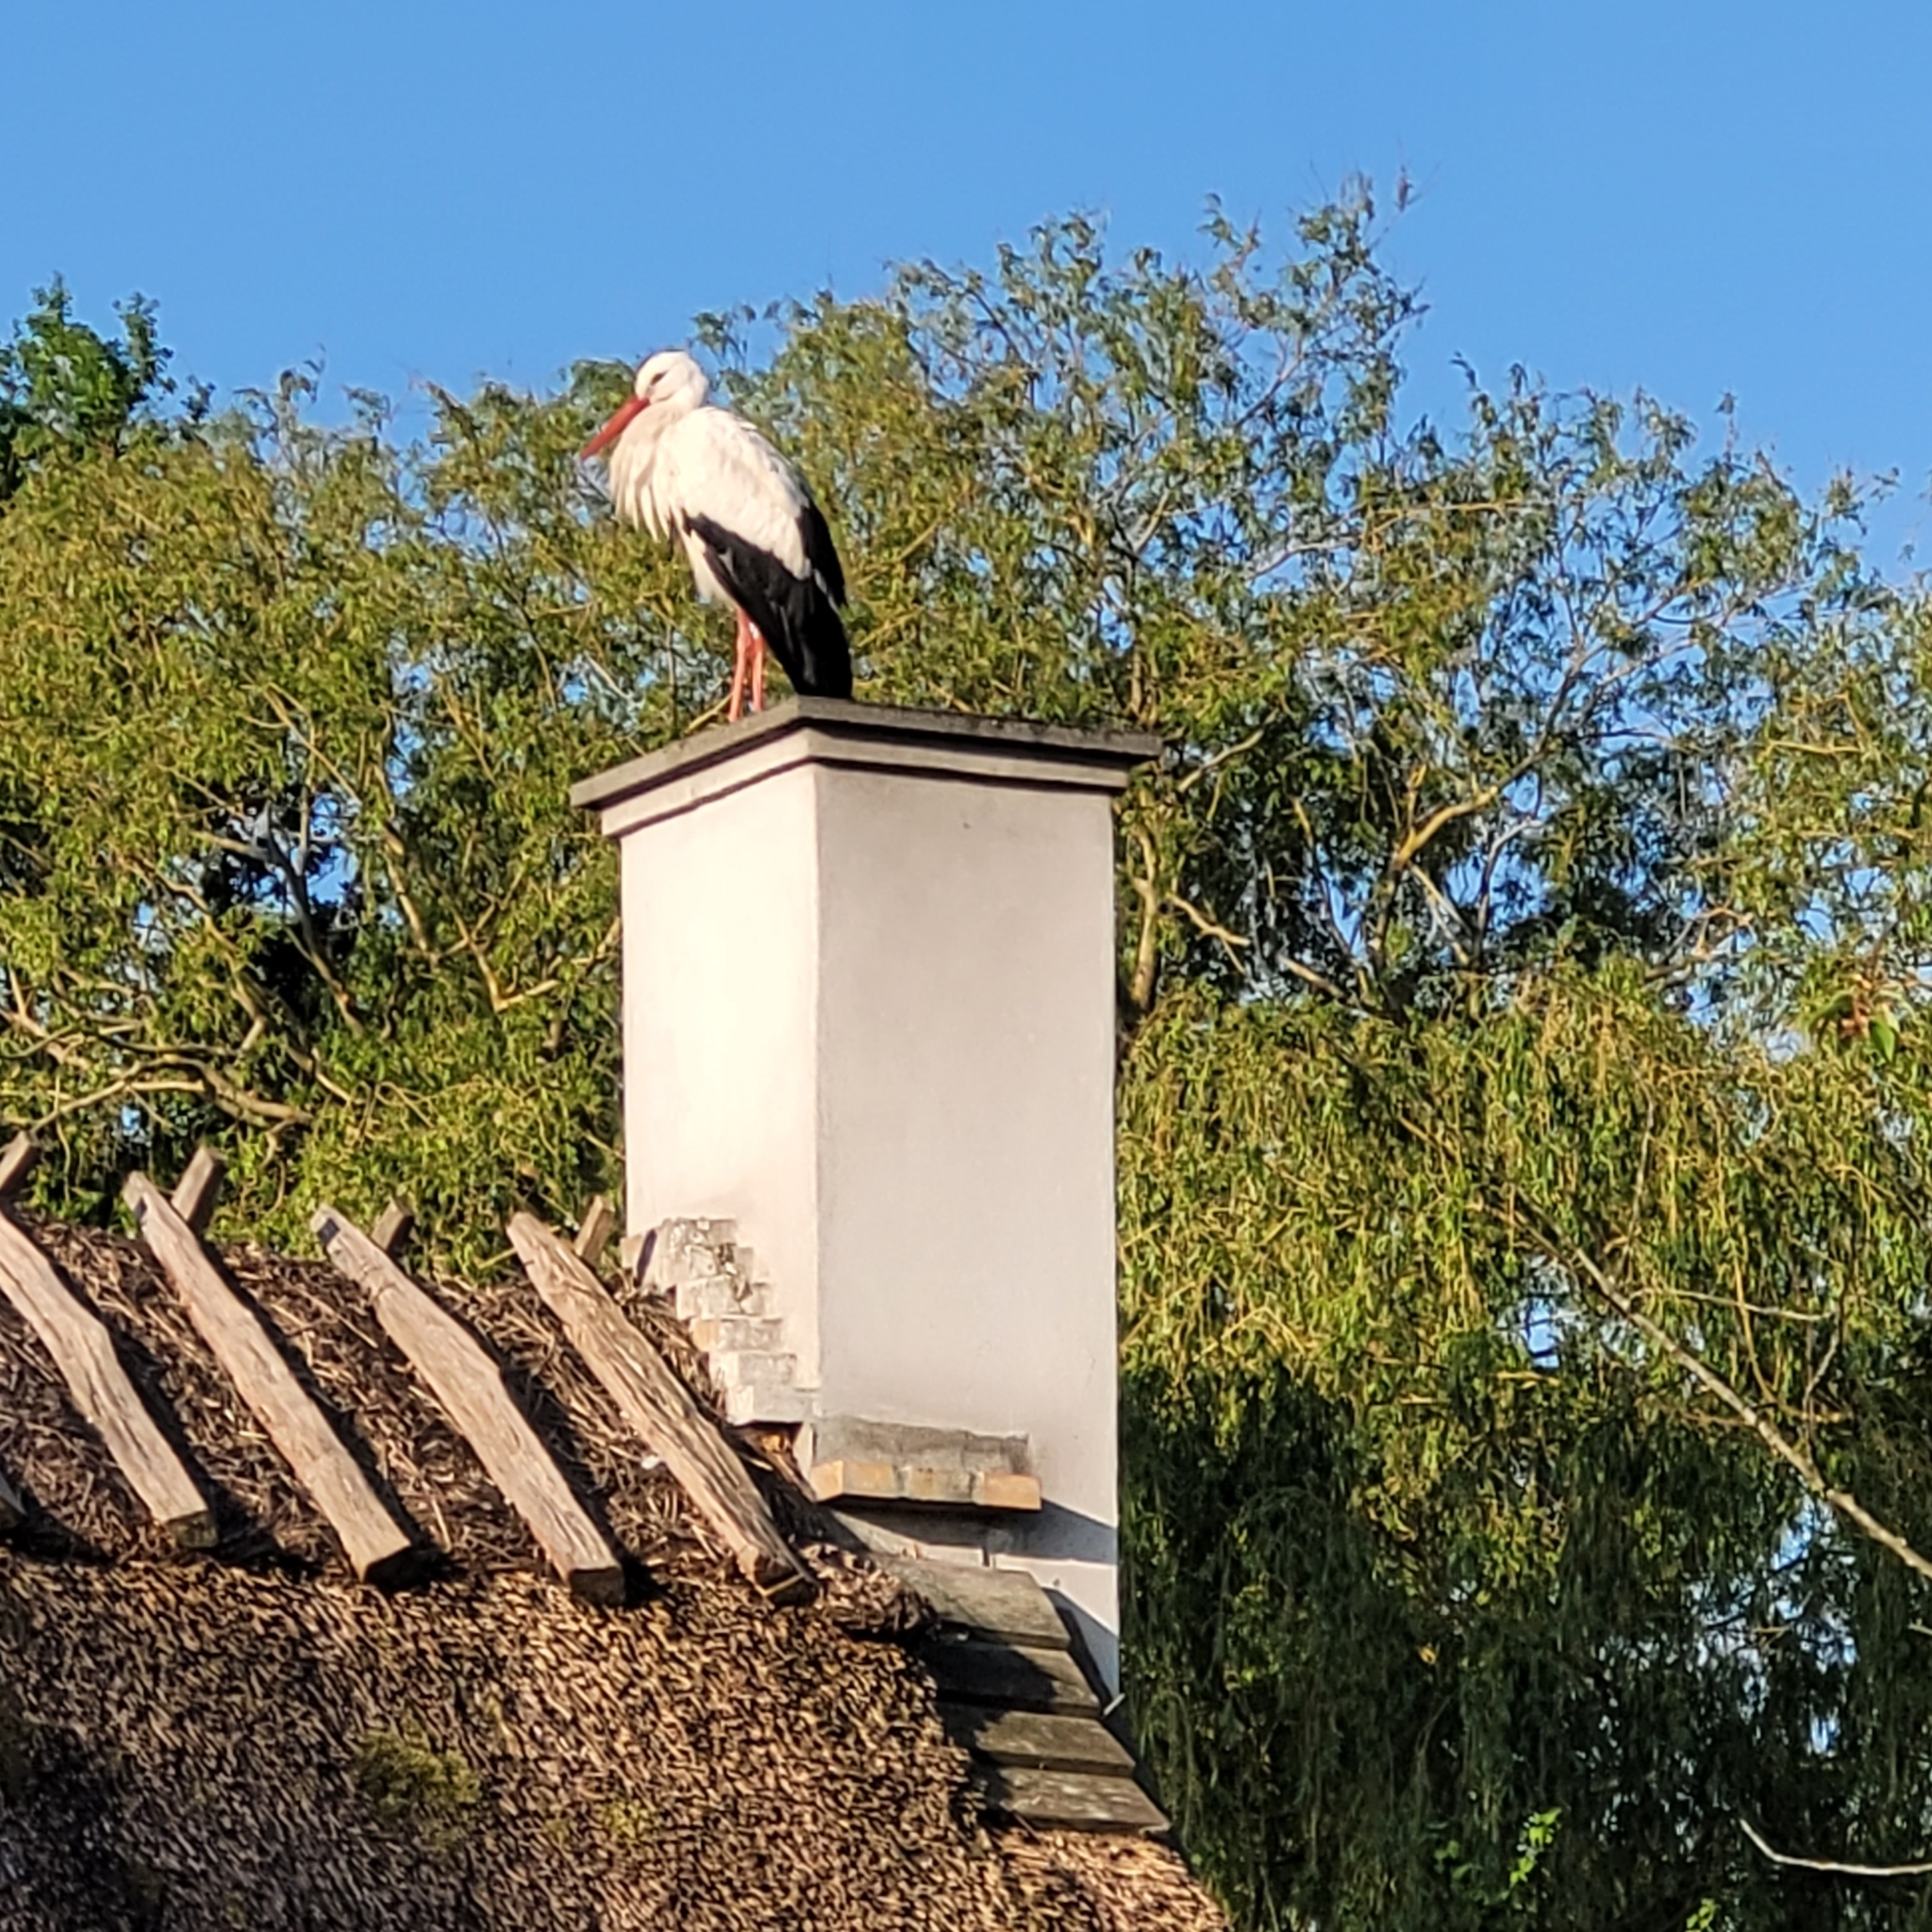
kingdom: Animalia
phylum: Chordata
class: Aves
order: Ciconiiformes
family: Ciconiidae
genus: Ciconia
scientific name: Ciconia ciconia
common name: White stork
